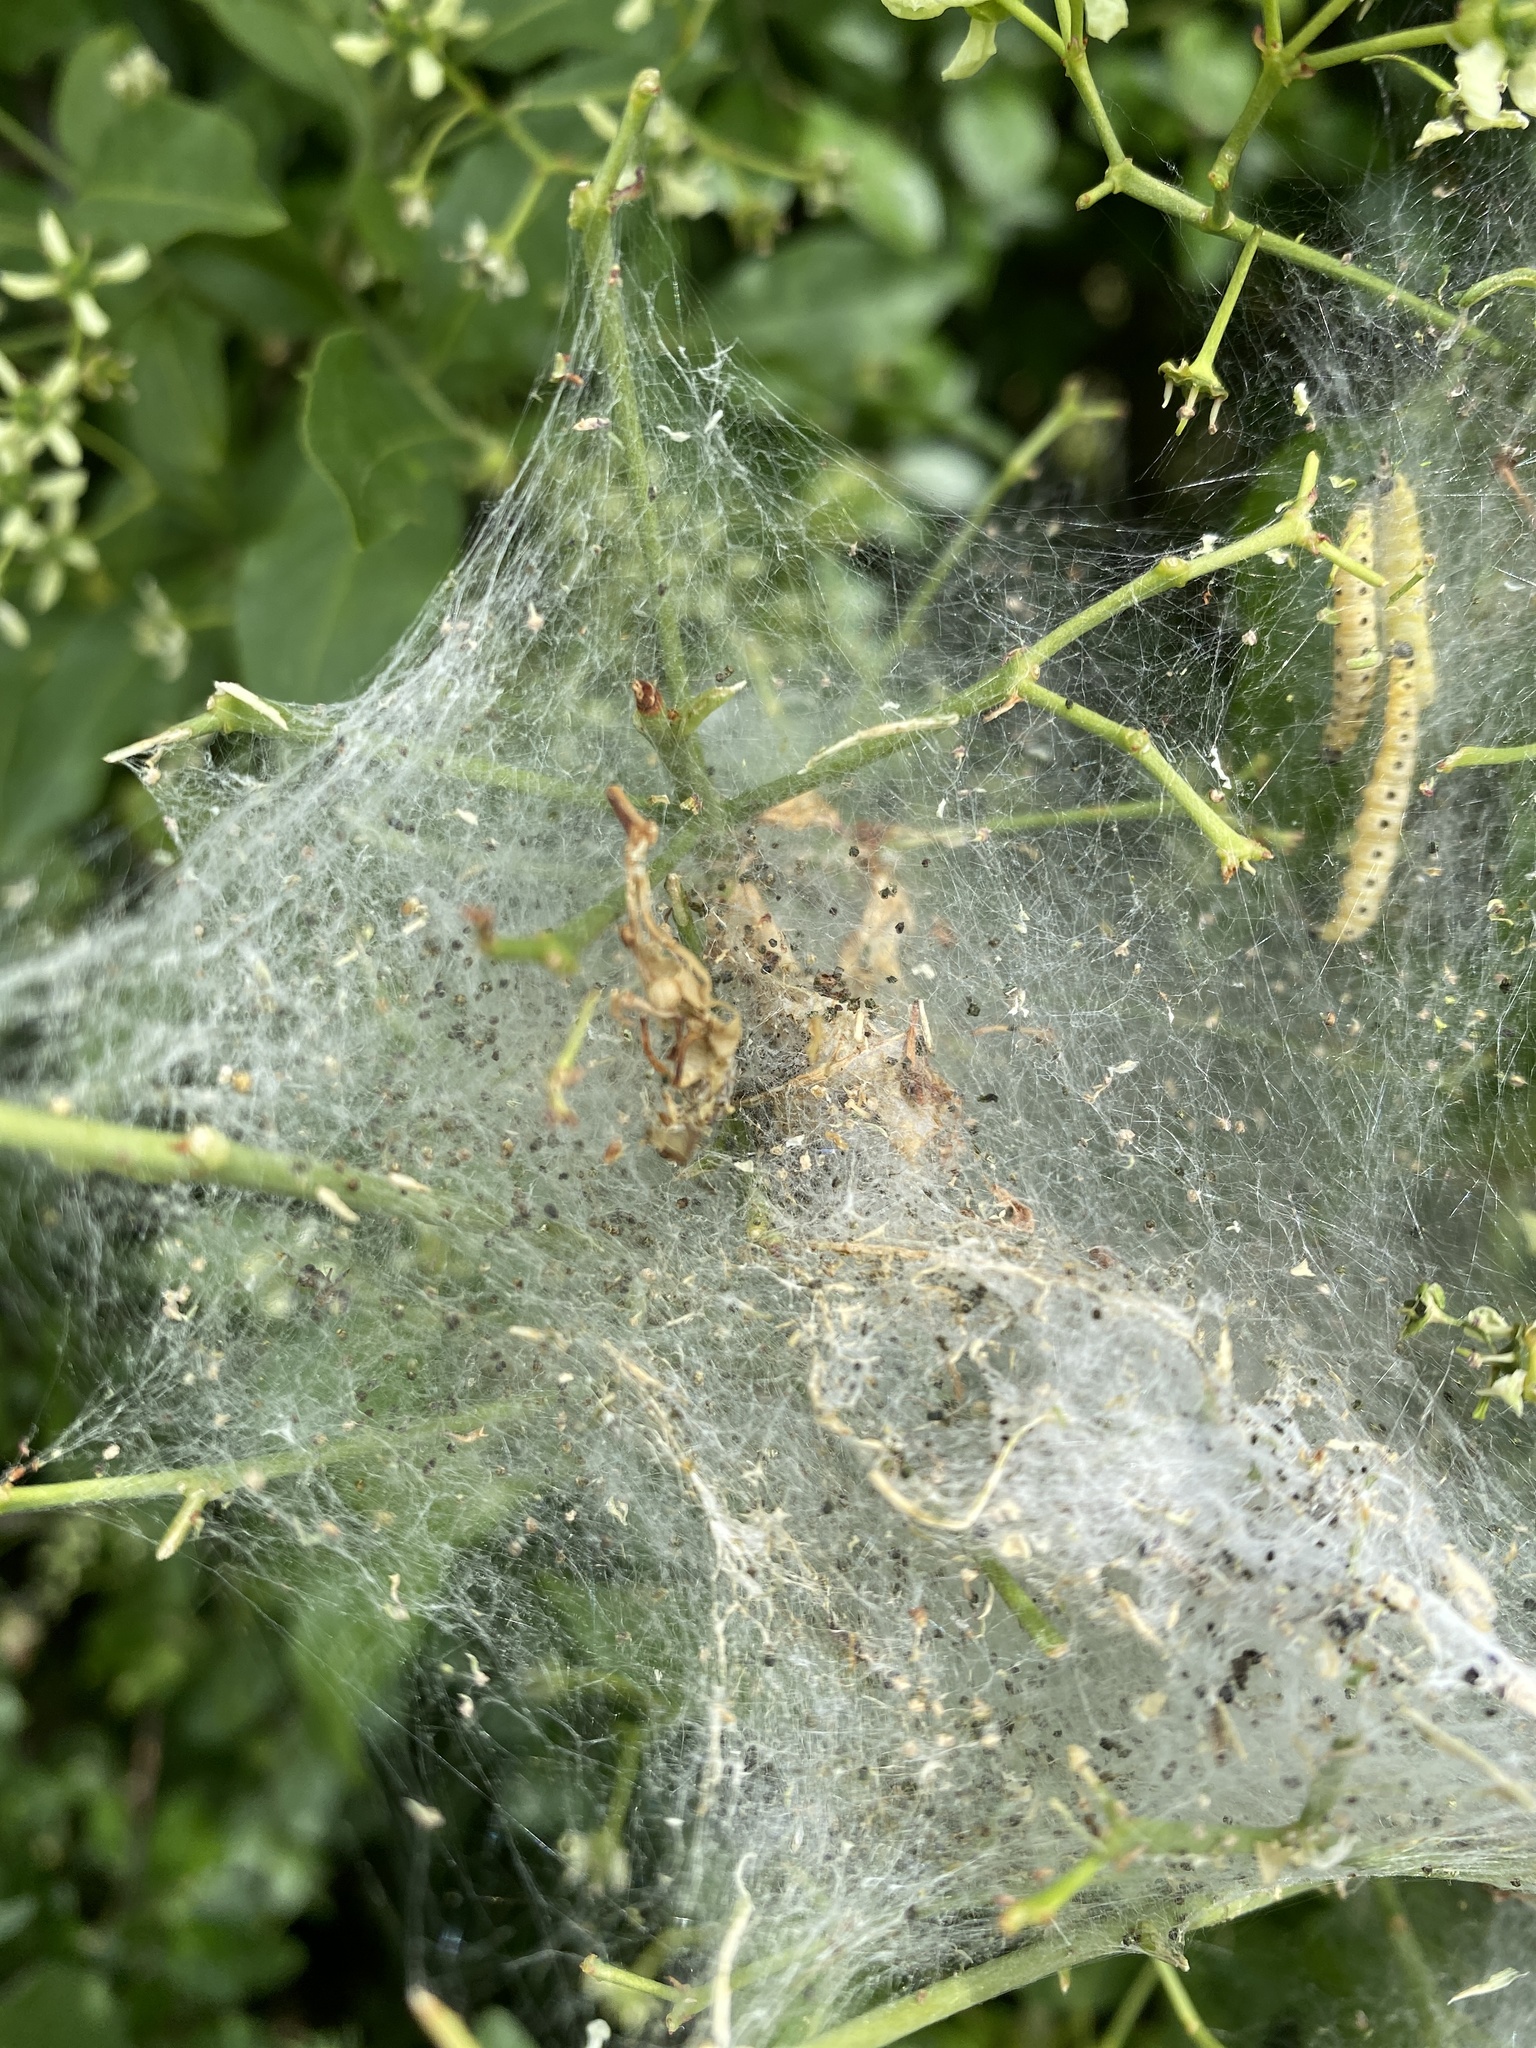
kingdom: Animalia
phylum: Arthropoda
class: Insecta
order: Lepidoptera
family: Yponomeutidae
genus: Yponomeuta
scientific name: Yponomeuta cagnagellus
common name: Spindle ermine
